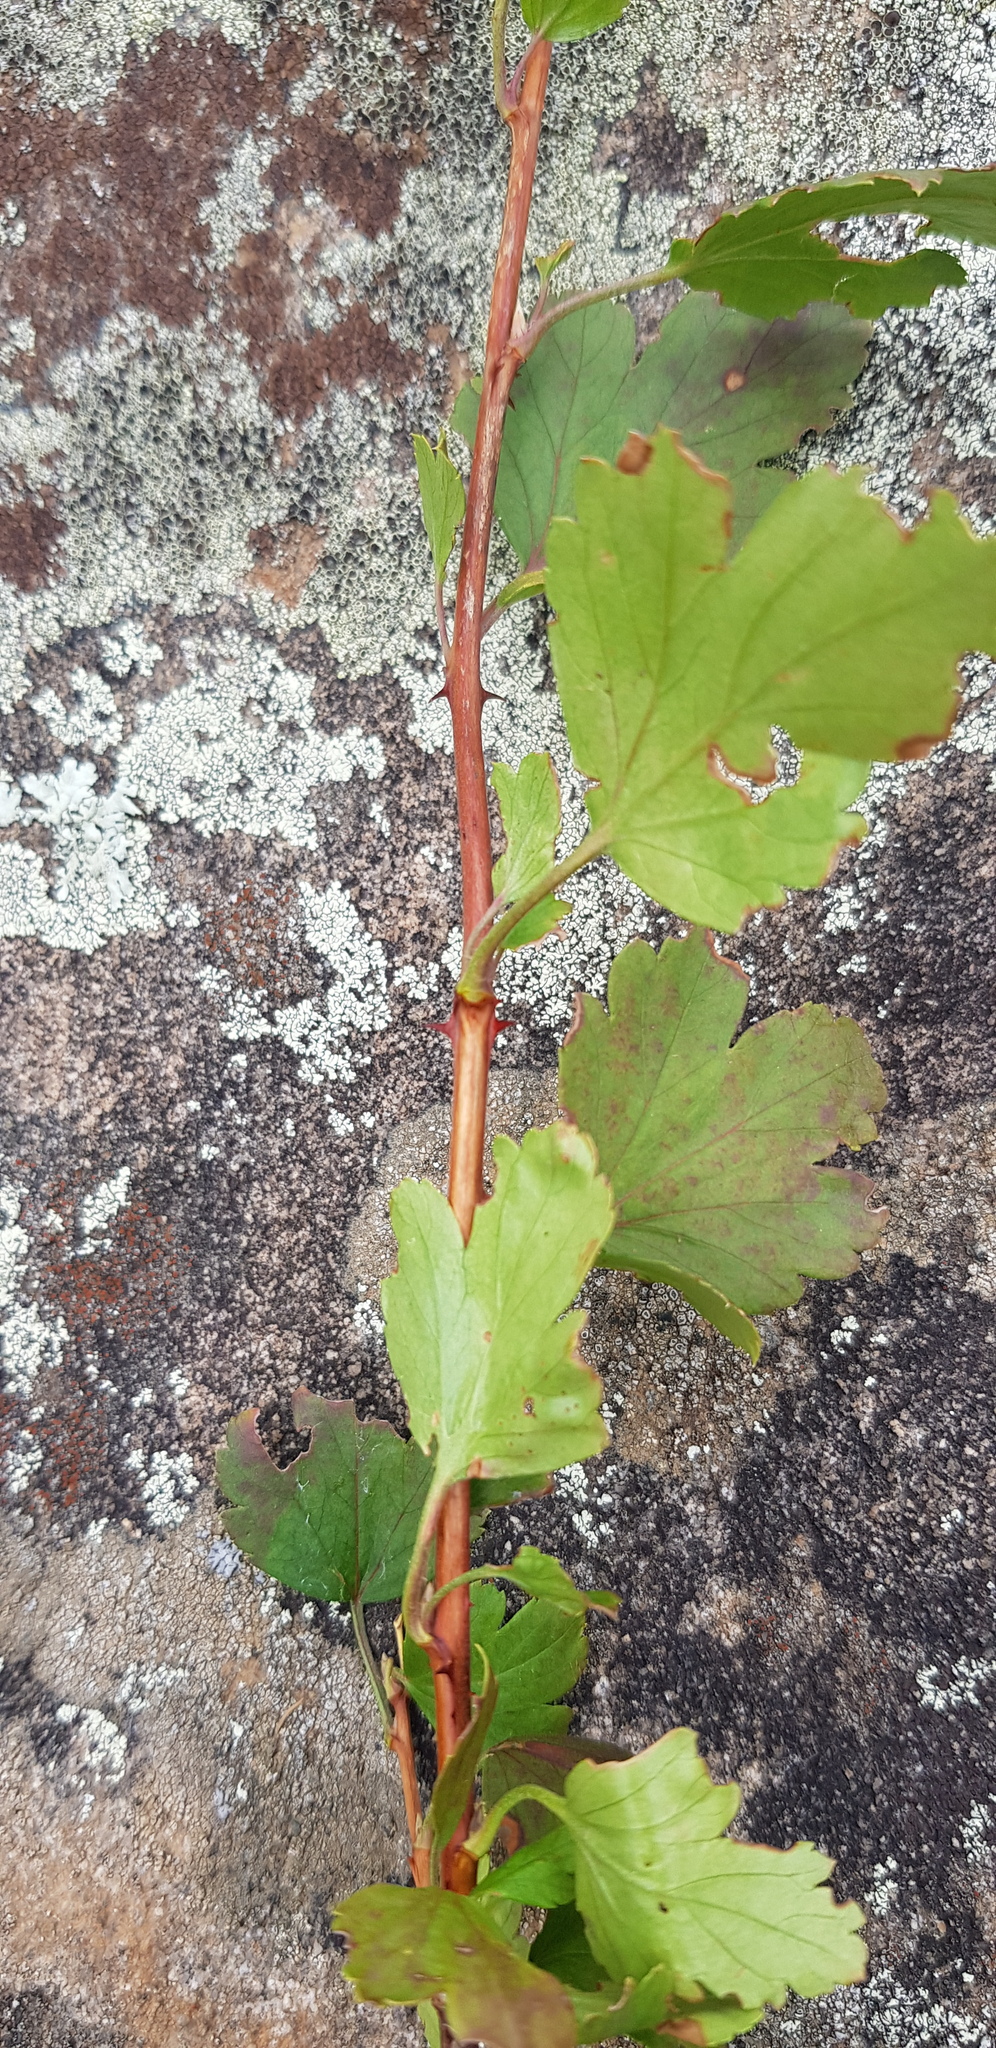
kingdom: Plantae
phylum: Tracheophyta
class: Magnoliopsida
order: Saxifragales
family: Grossulariaceae
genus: Ribes
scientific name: Ribes pulchellum
